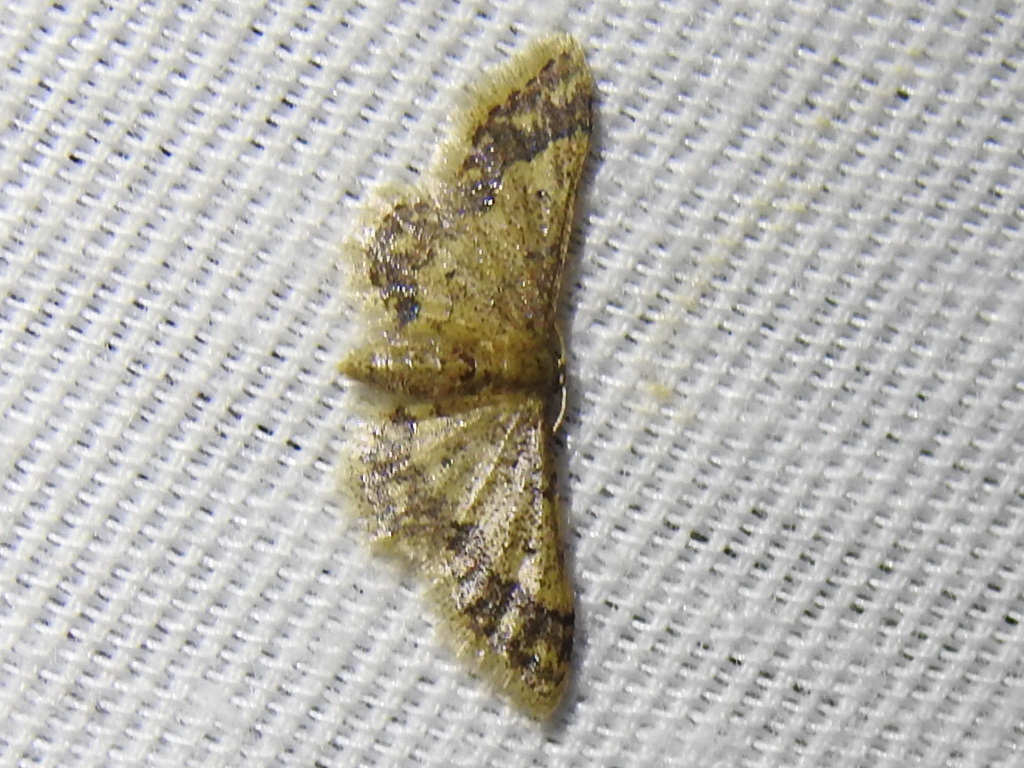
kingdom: Animalia
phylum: Arthropoda
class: Insecta
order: Lepidoptera
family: Geometridae
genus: Idaea
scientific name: Idaea celtima
